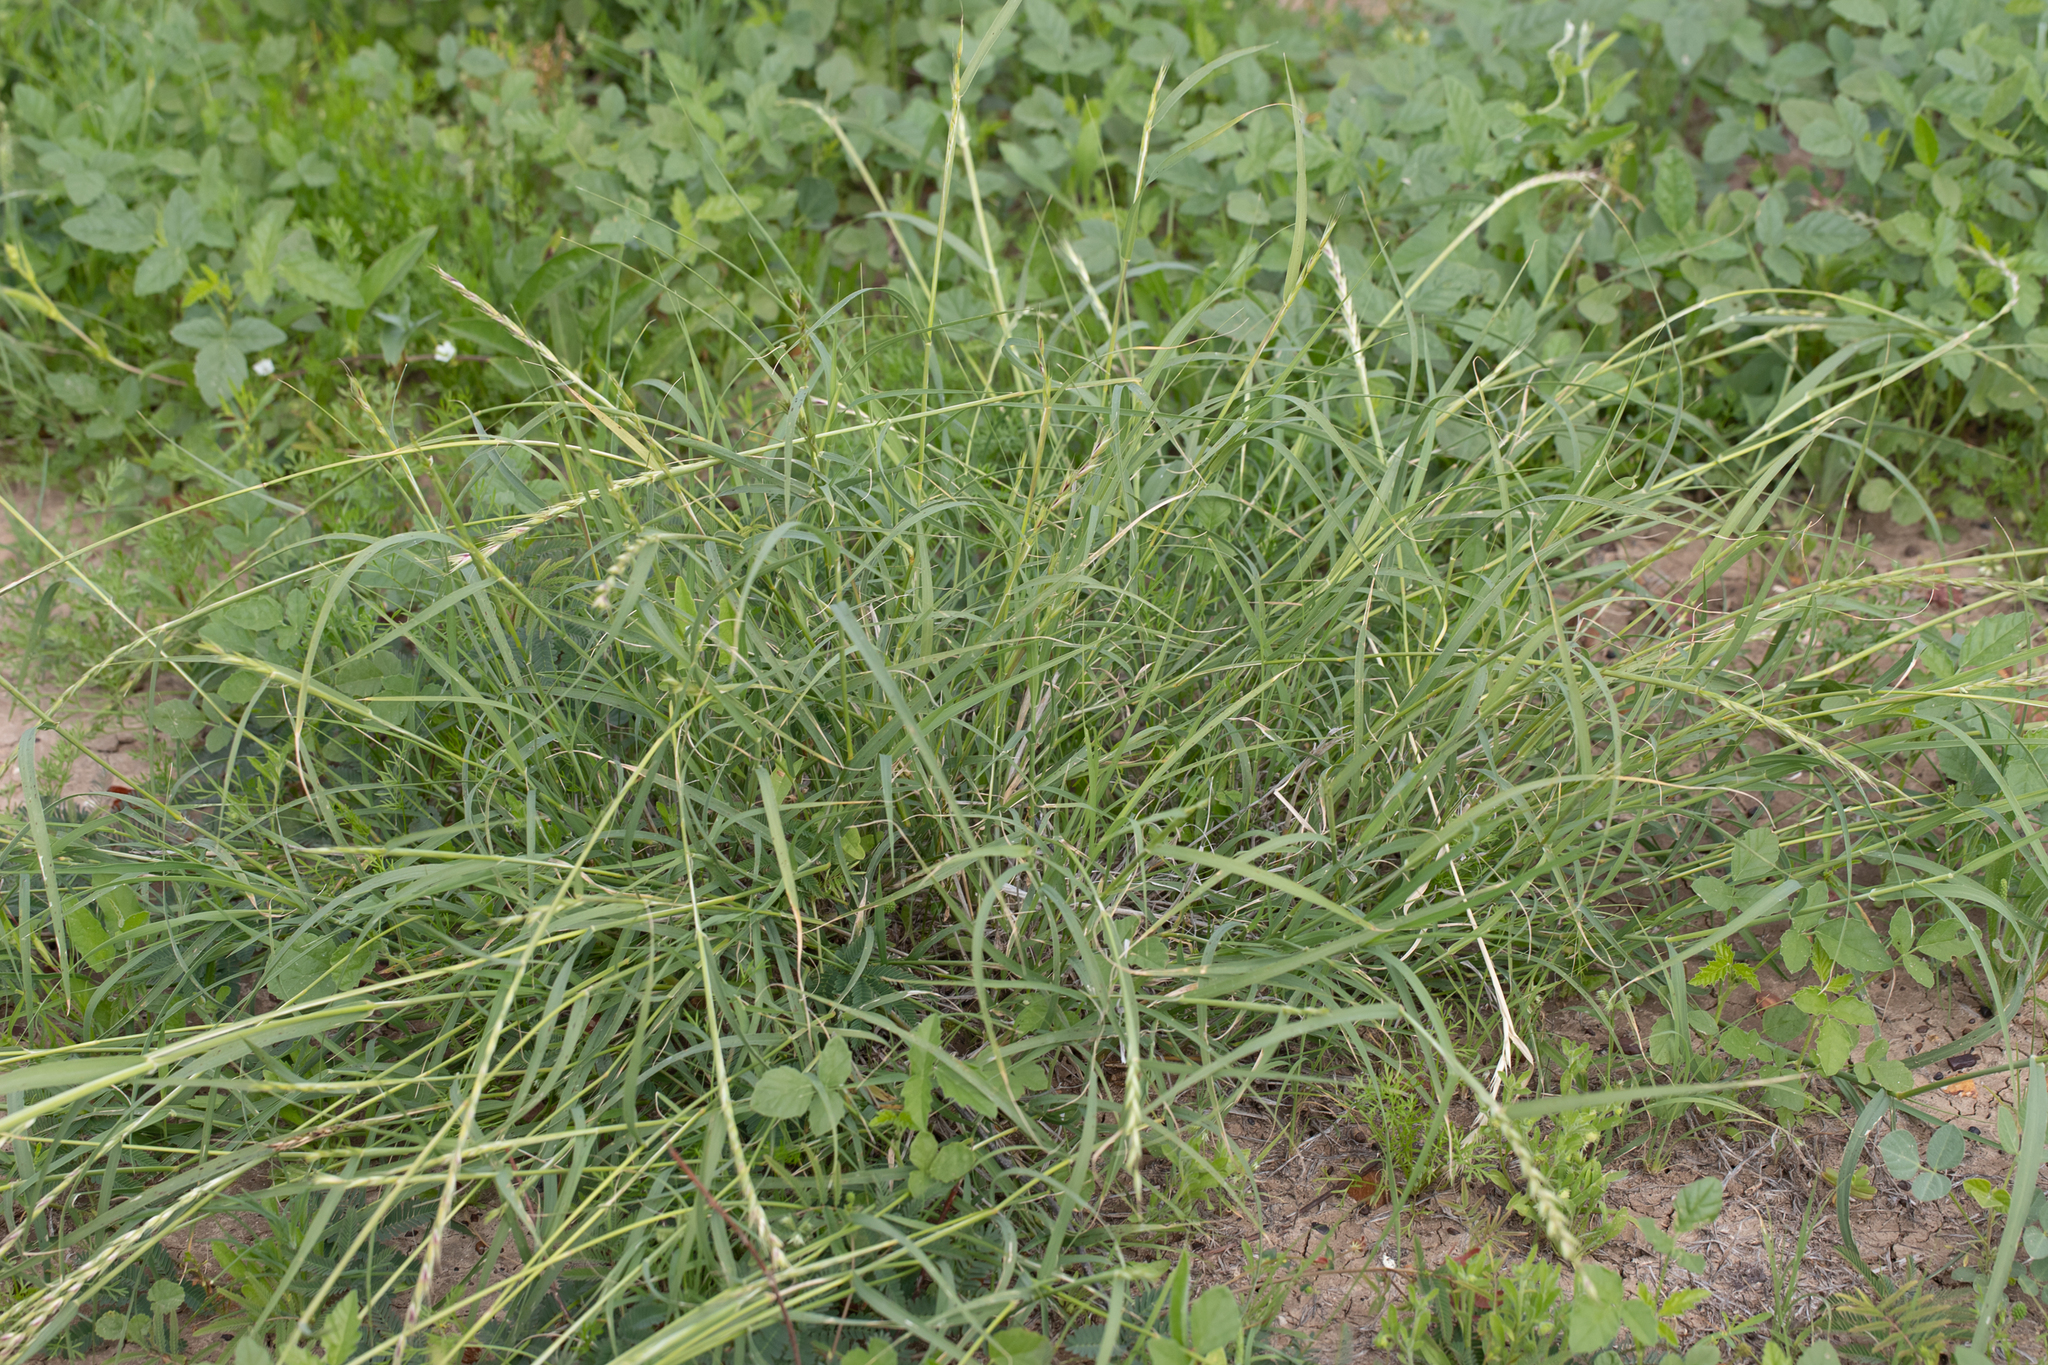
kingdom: Plantae
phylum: Tracheophyta
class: Liliopsida
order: Poales
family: Poaceae
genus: Astrebla
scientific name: Astrebla lappacea
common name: Curly mitchell grass
